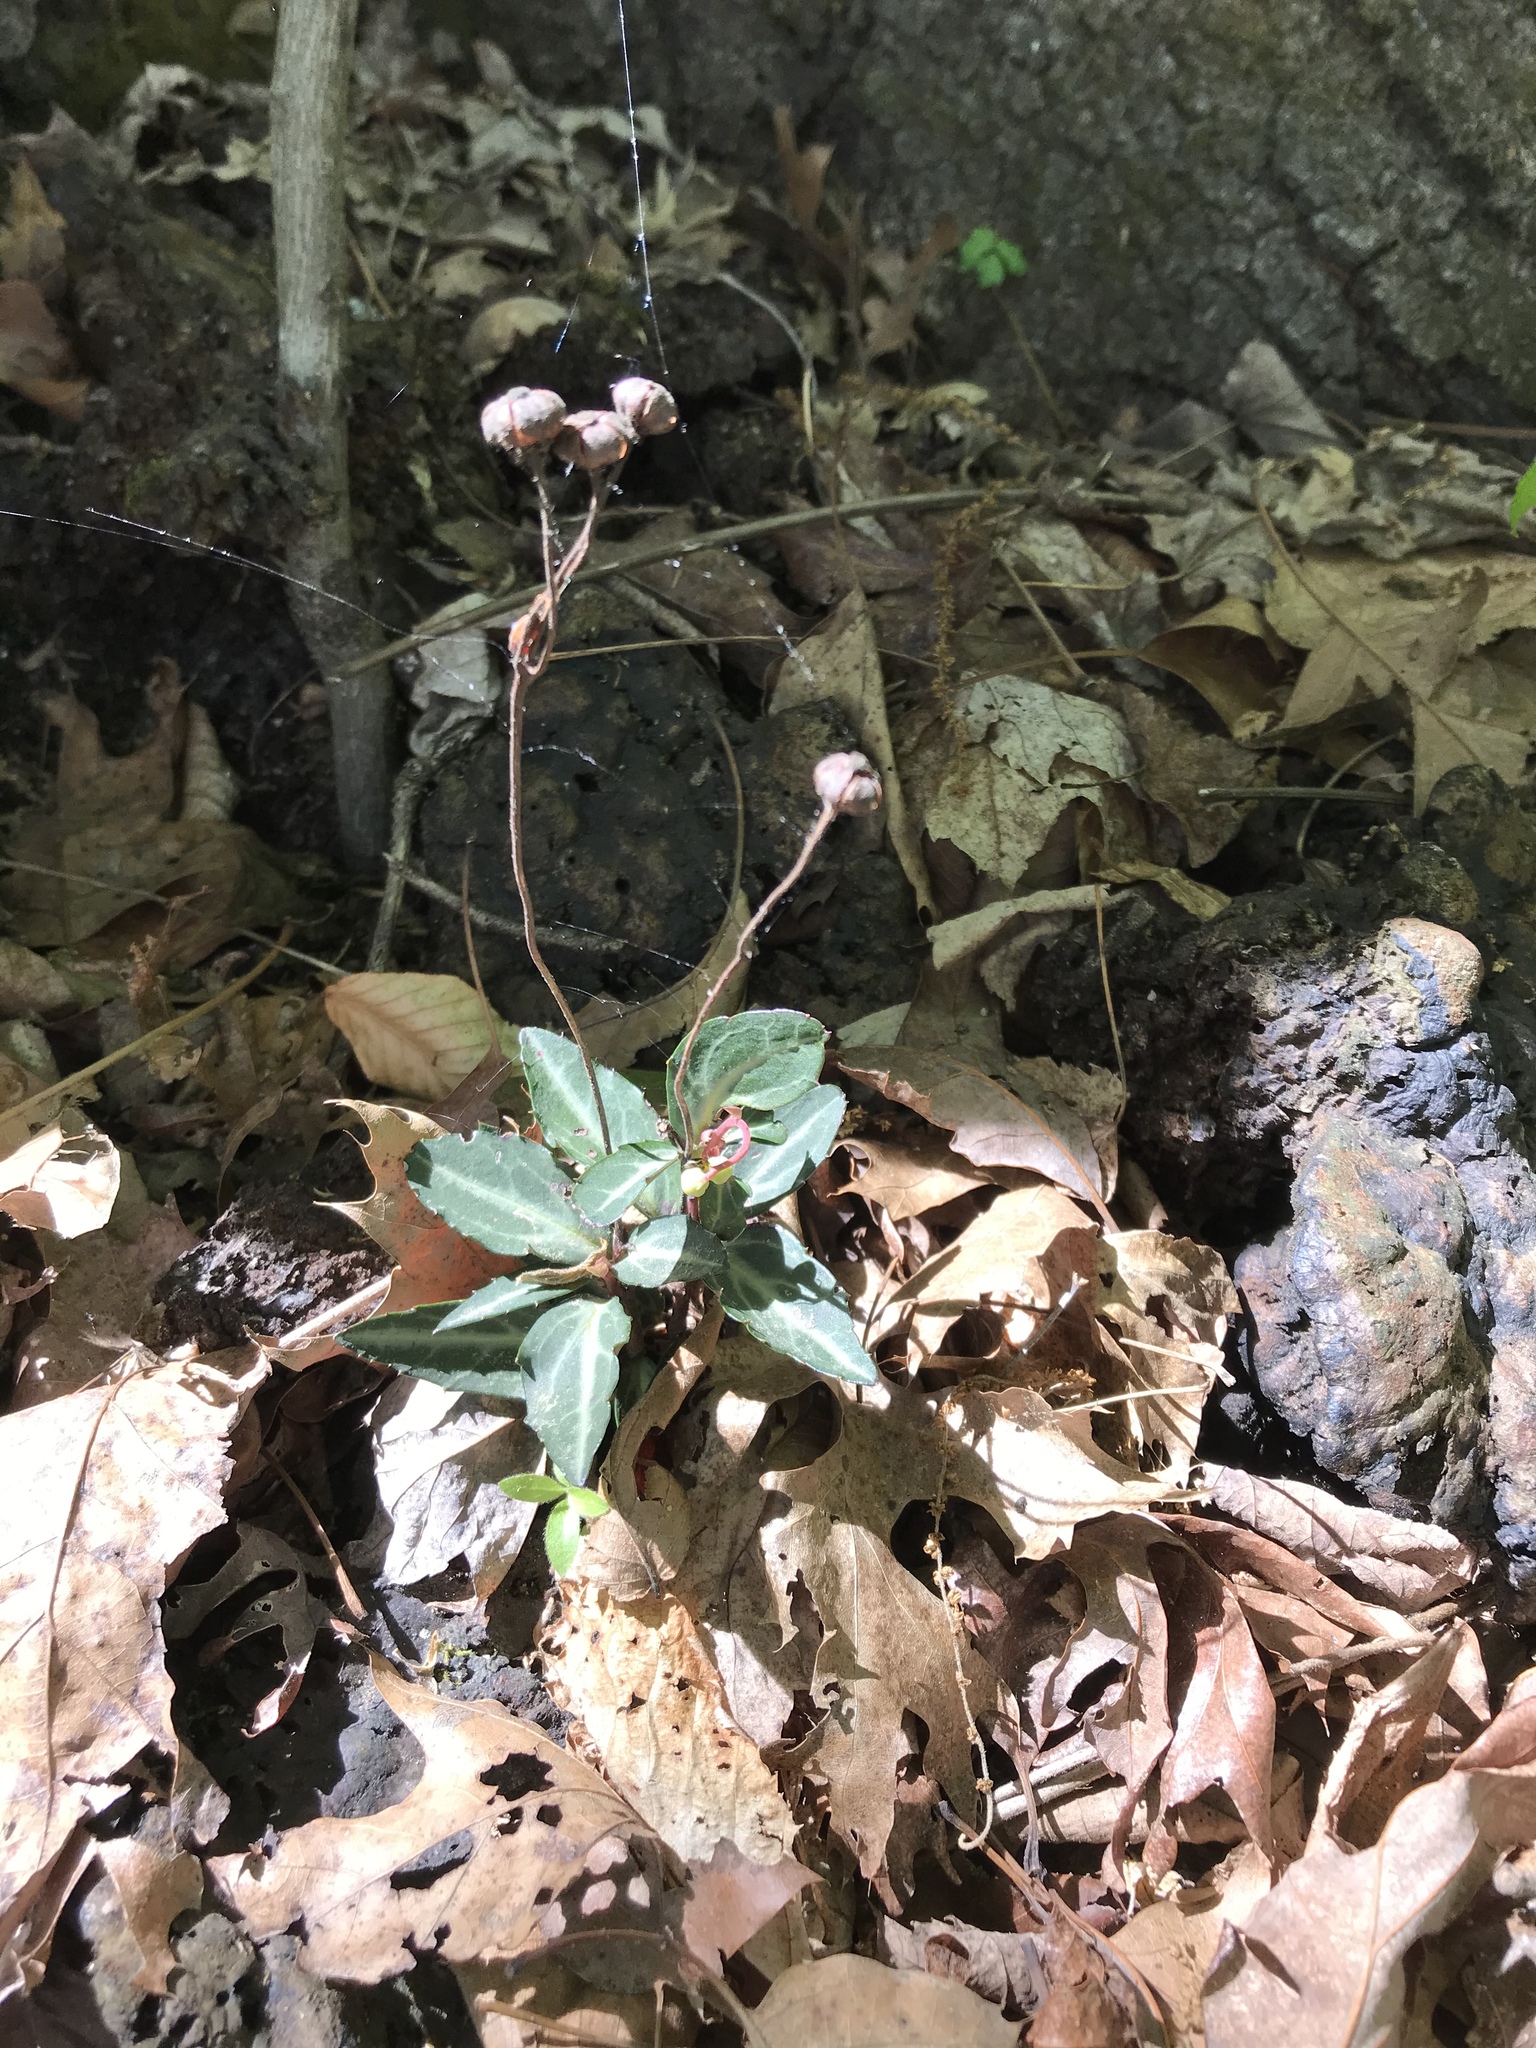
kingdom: Plantae
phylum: Tracheophyta
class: Magnoliopsida
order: Ericales
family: Ericaceae
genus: Chimaphila
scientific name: Chimaphila maculata
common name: Spotted pipsissewa
